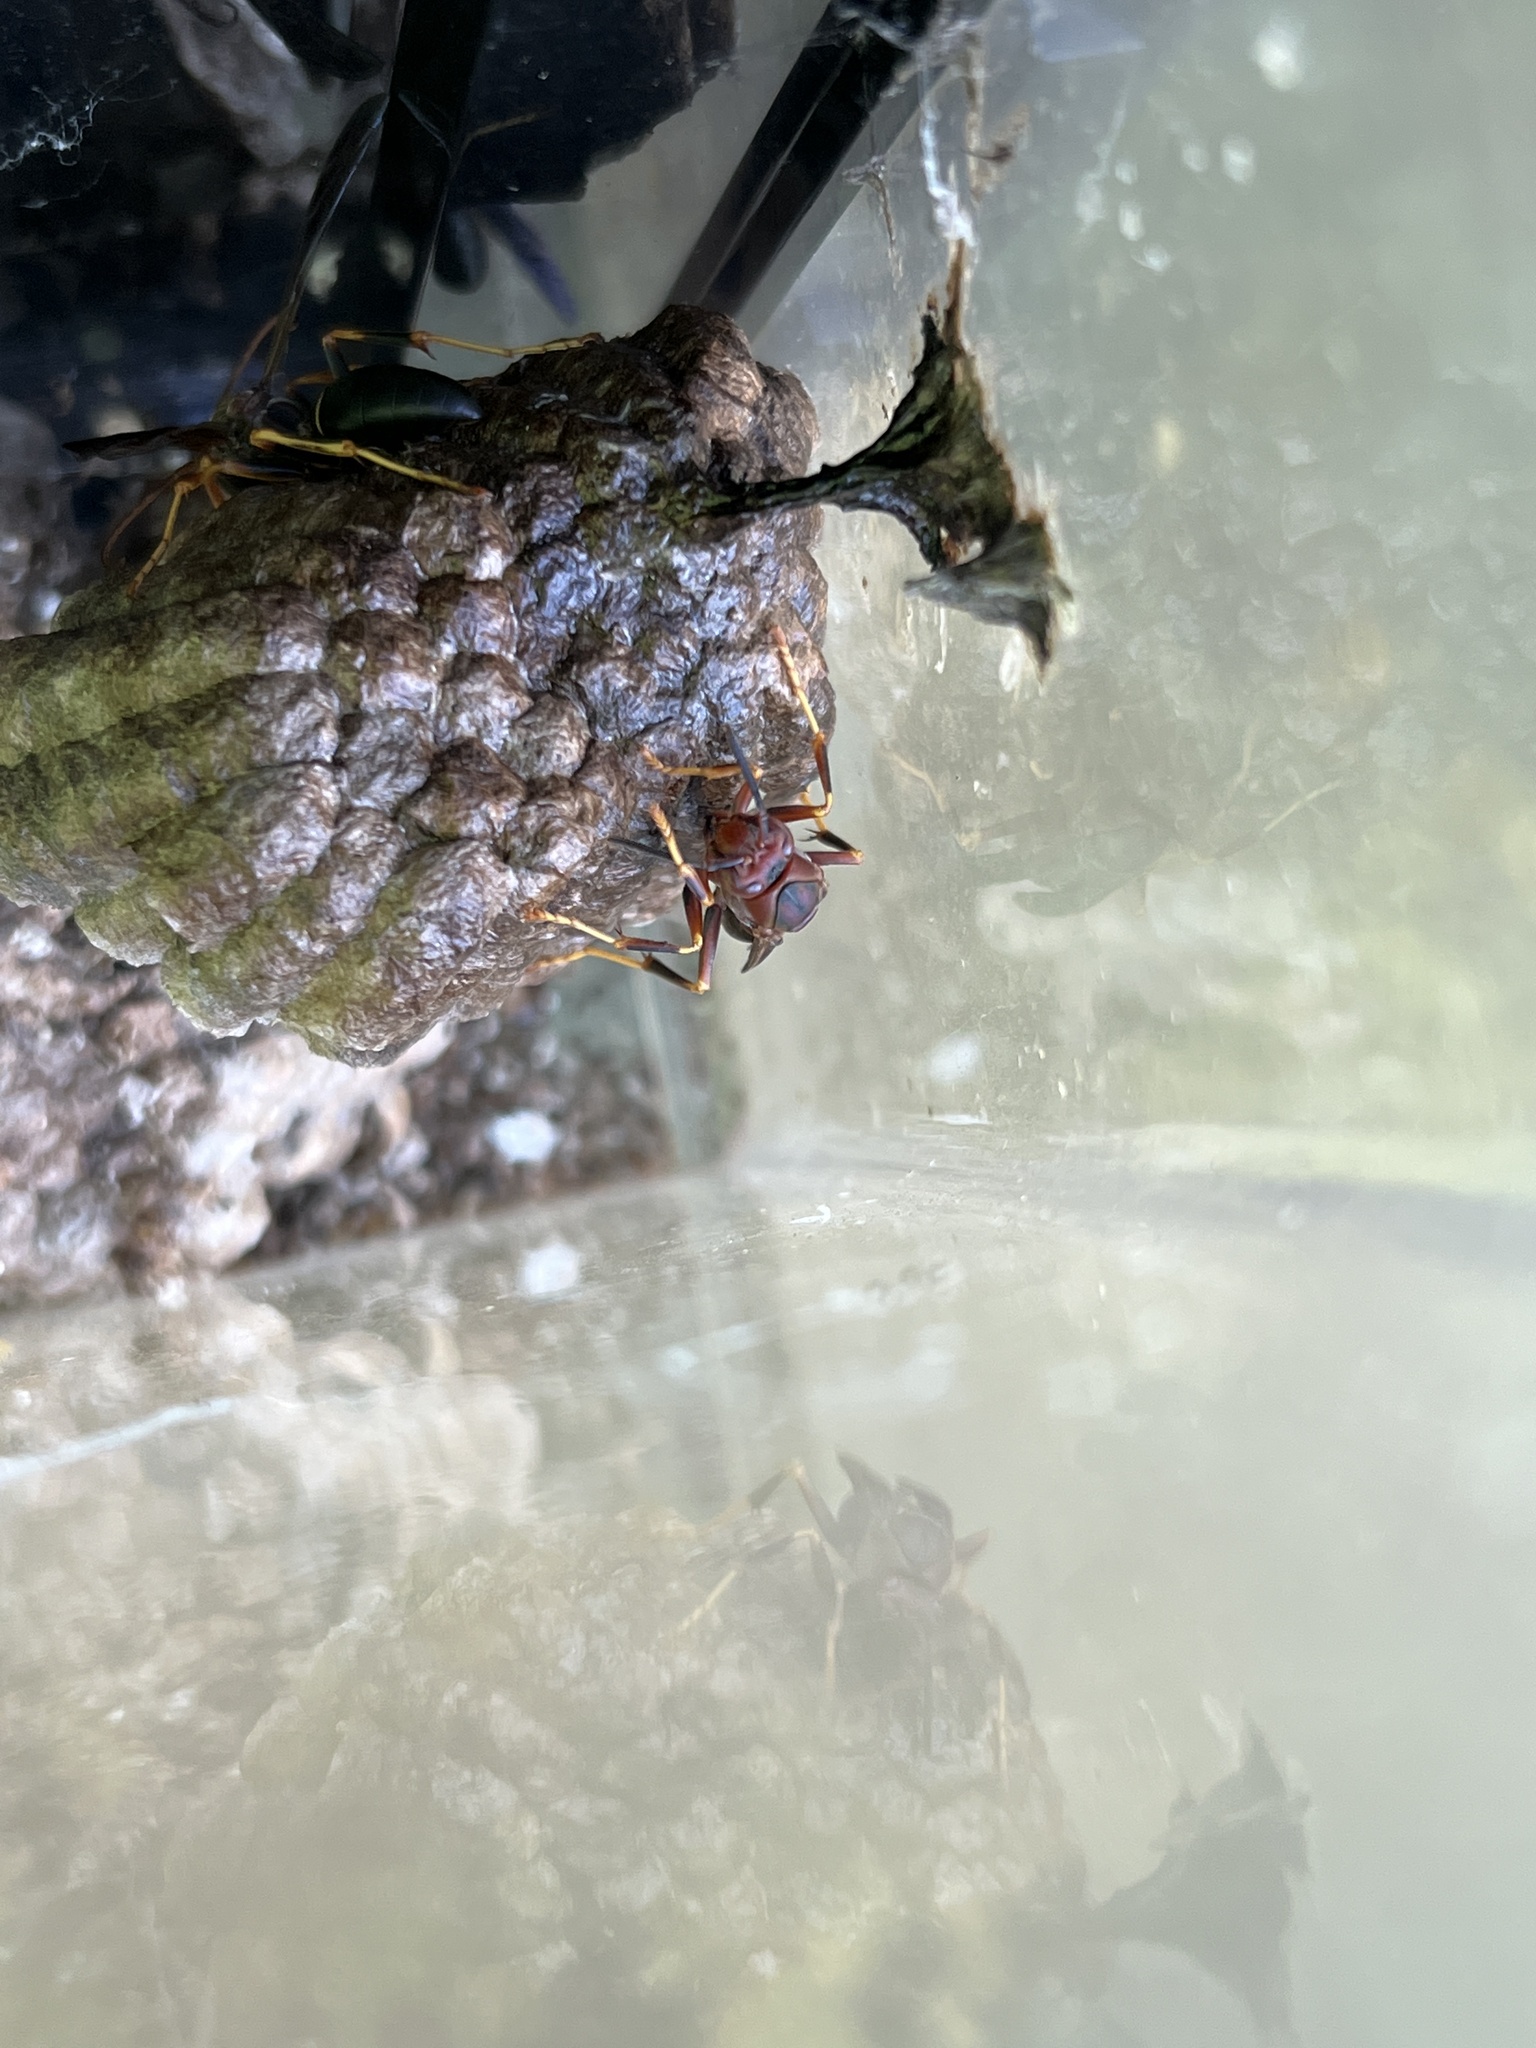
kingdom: Animalia
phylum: Arthropoda
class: Insecta
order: Hymenoptera
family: Eumenidae
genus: Polistes
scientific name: Polistes metricus
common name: Metric paper wasp
